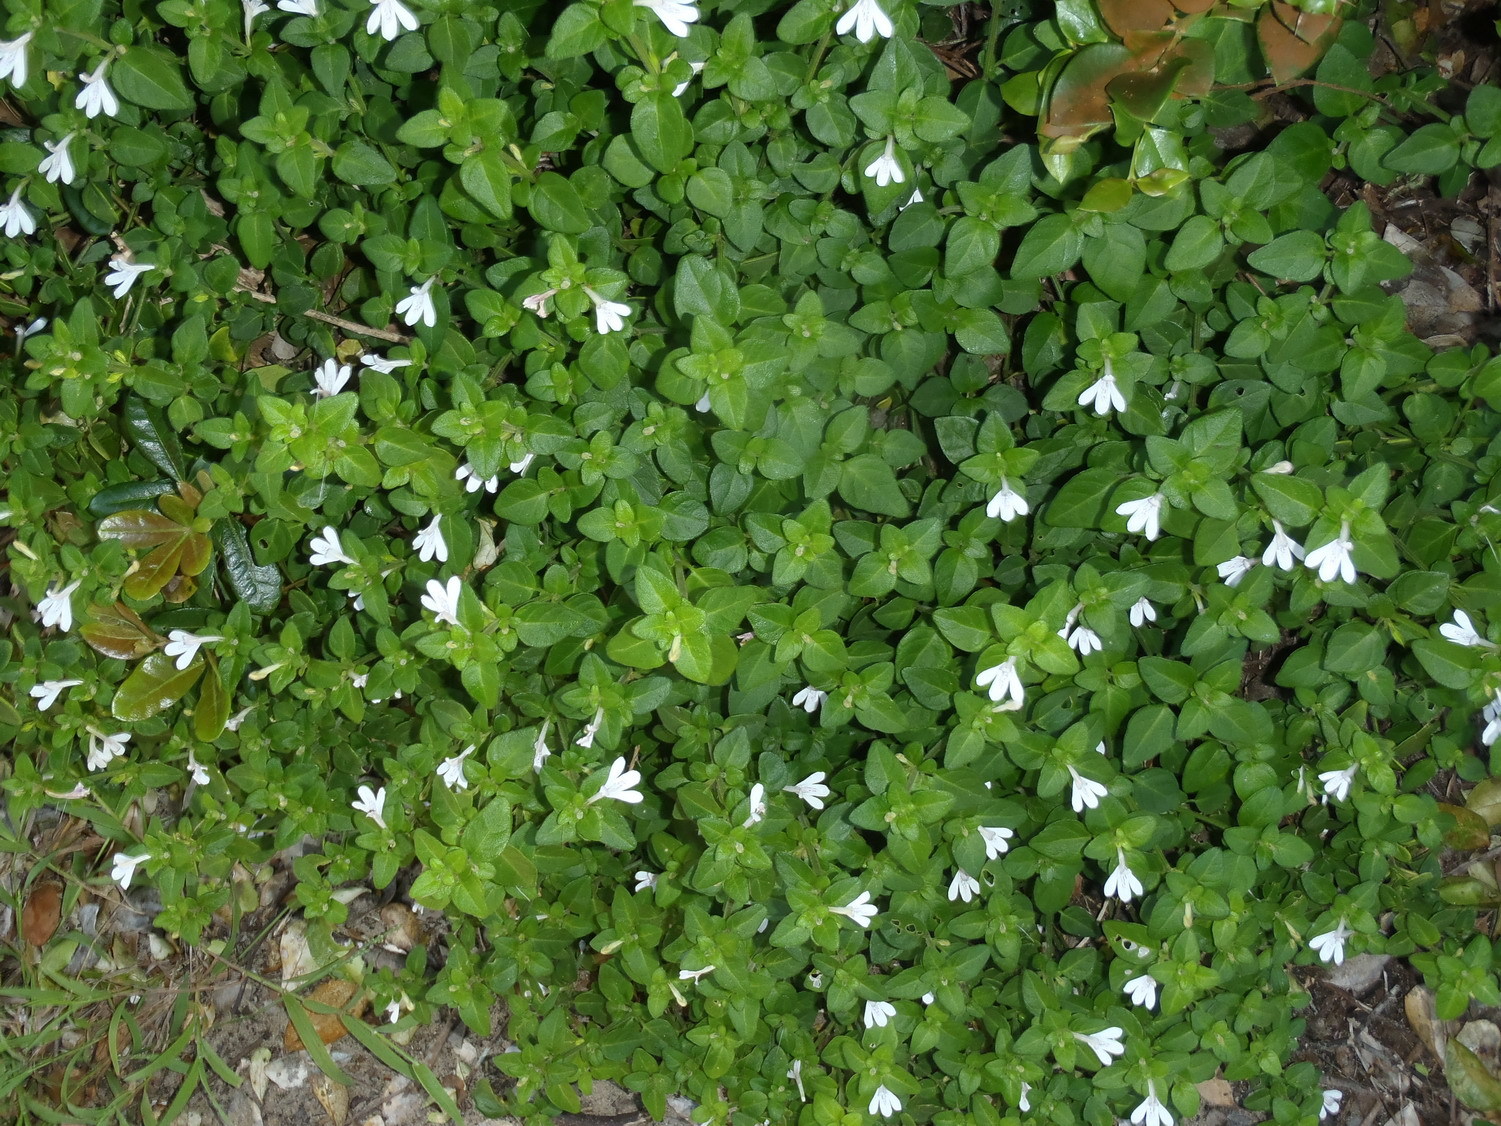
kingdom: Plantae
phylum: Tracheophyta
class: Magnoliopsida
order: Lamiales
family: Acanthaceae
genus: Justicia
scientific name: Justicia tubulosa
